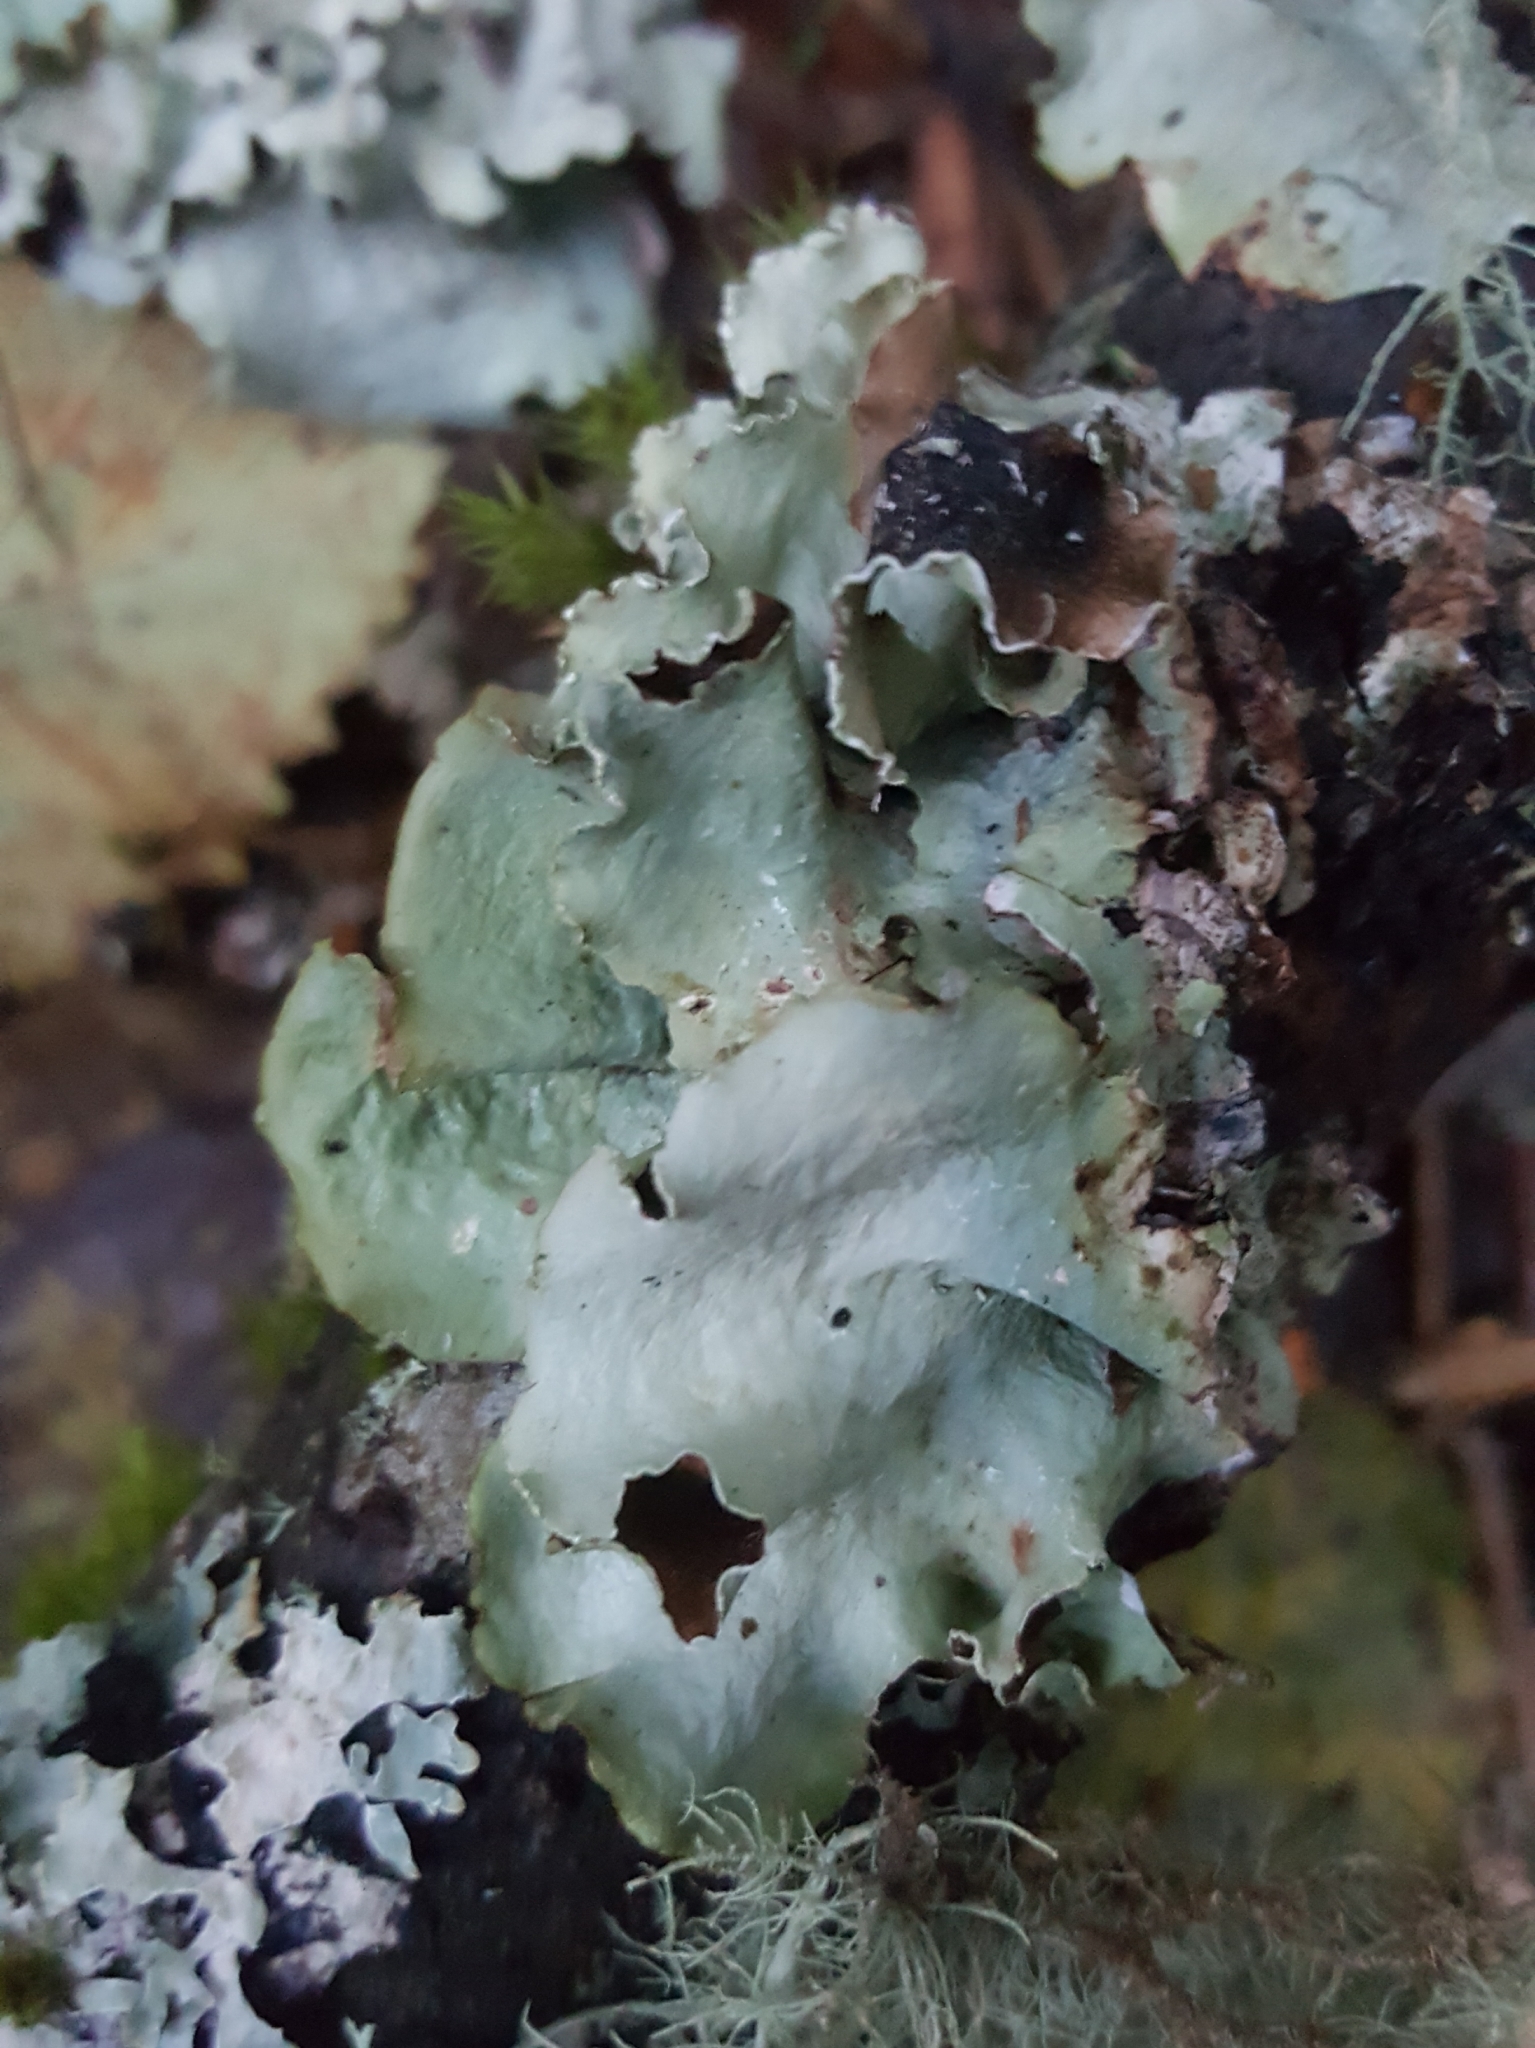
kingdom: Fungi
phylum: Ascomycota
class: Lecanoromycetes
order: Lecanorales
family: Parmeliaceae
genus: Cetrelia
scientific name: Cetrelia cetrarioides
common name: Speckled iceland lichen
